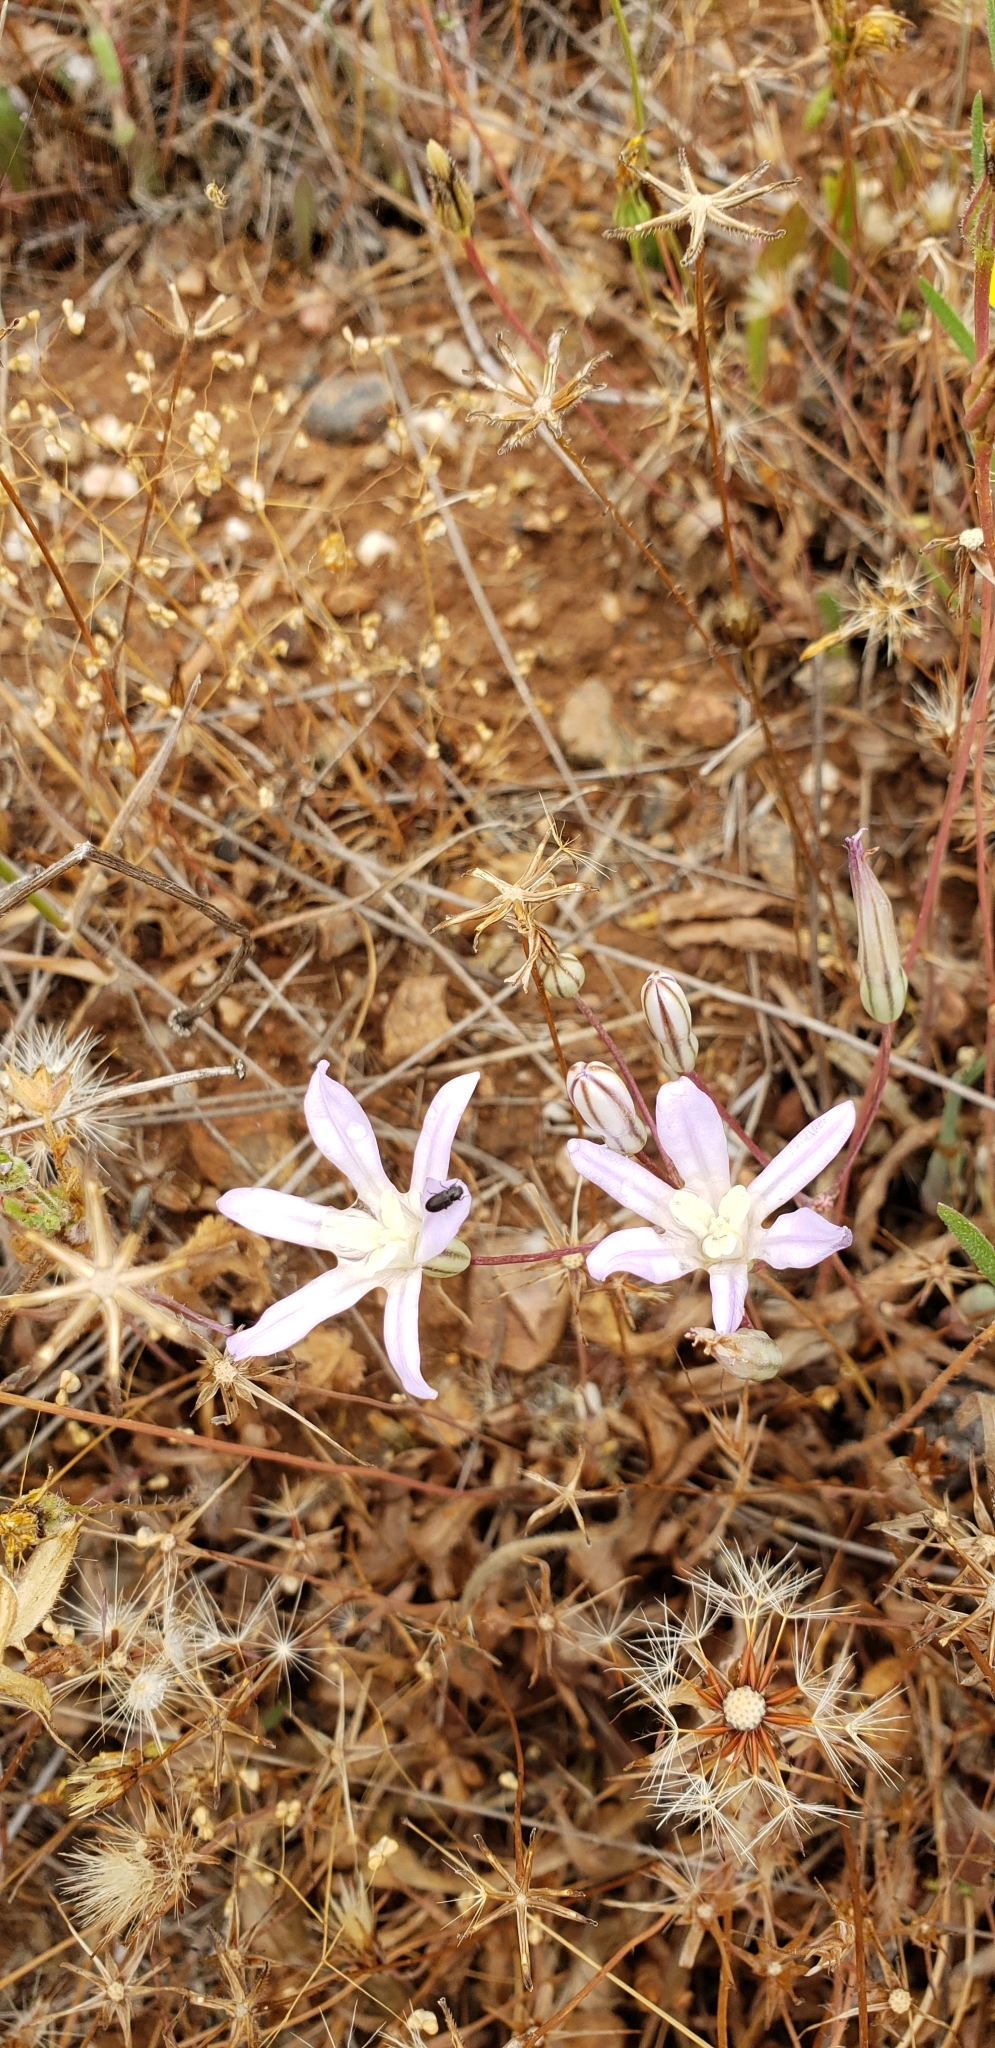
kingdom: Plantae
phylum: Tracheophyta
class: Liliopsida
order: Asparagales
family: Asparagaceae
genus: Brodiaea
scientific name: Brodiaea nana
